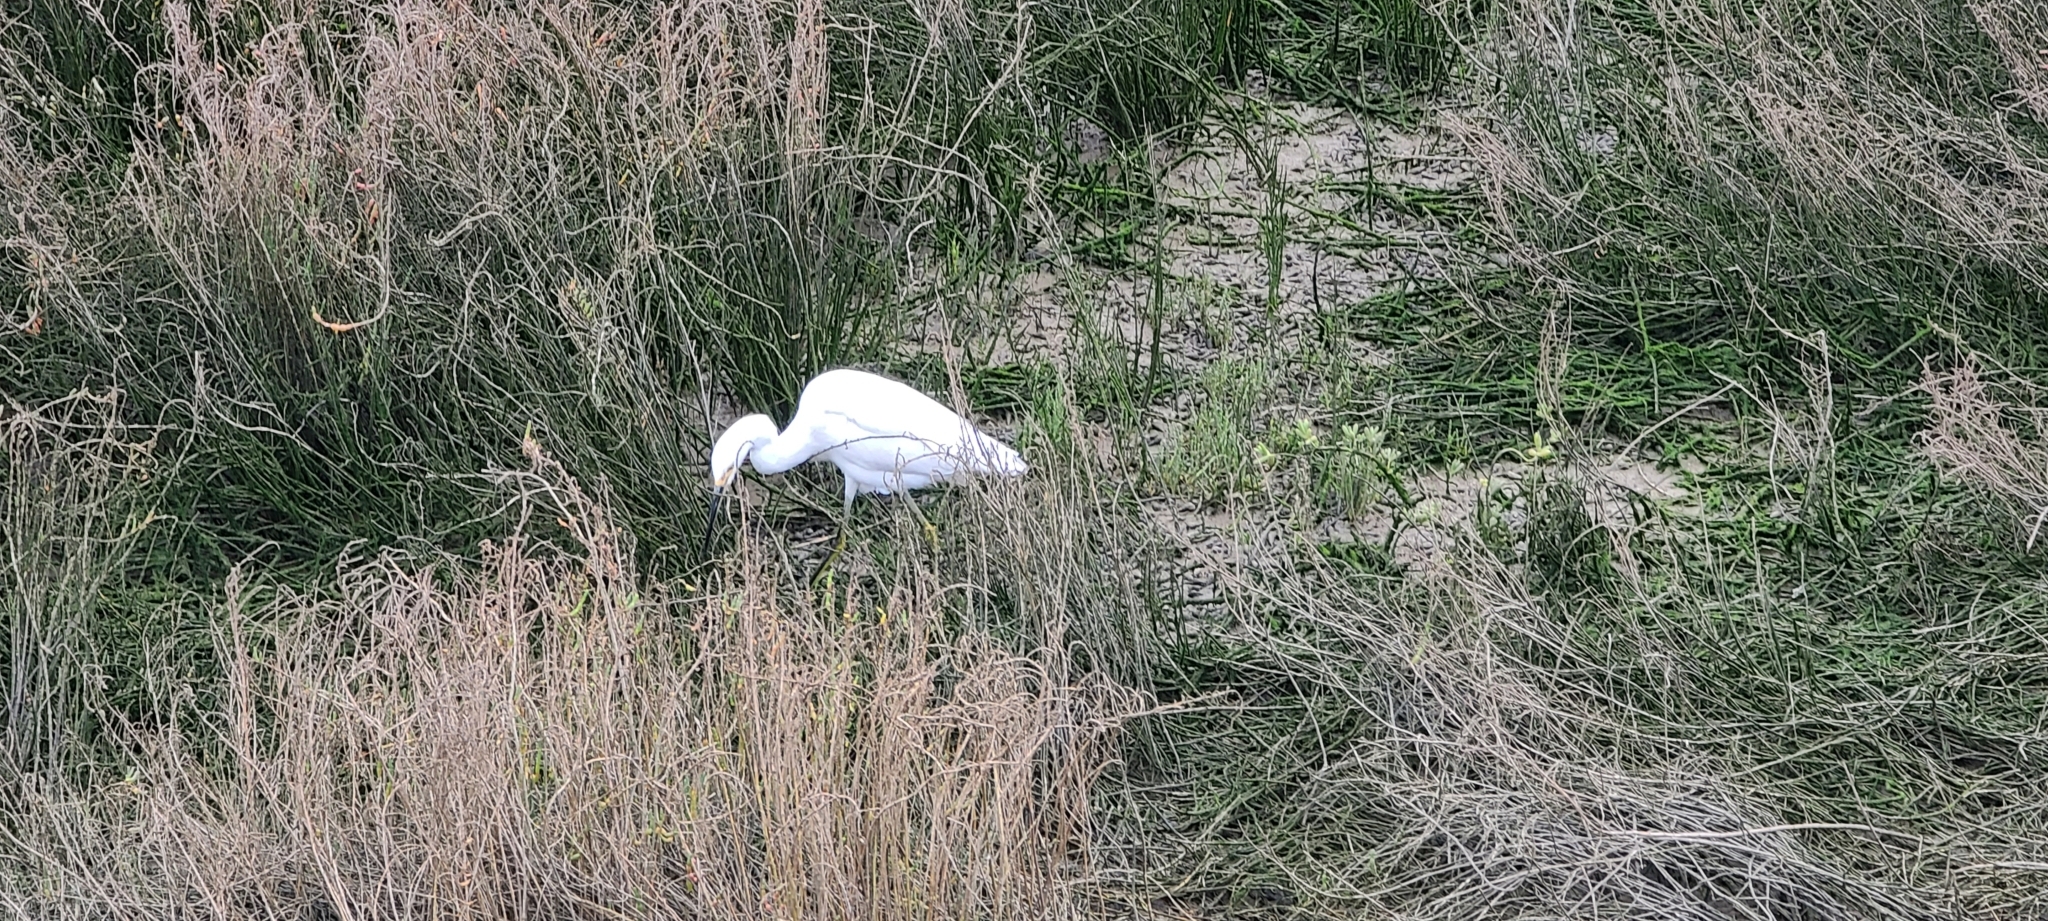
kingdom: Animalia
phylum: Chordata
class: Aves
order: Pelecaniformes
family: Ardeidae
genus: Egretta
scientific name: Egretta thula
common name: Snowy egret
